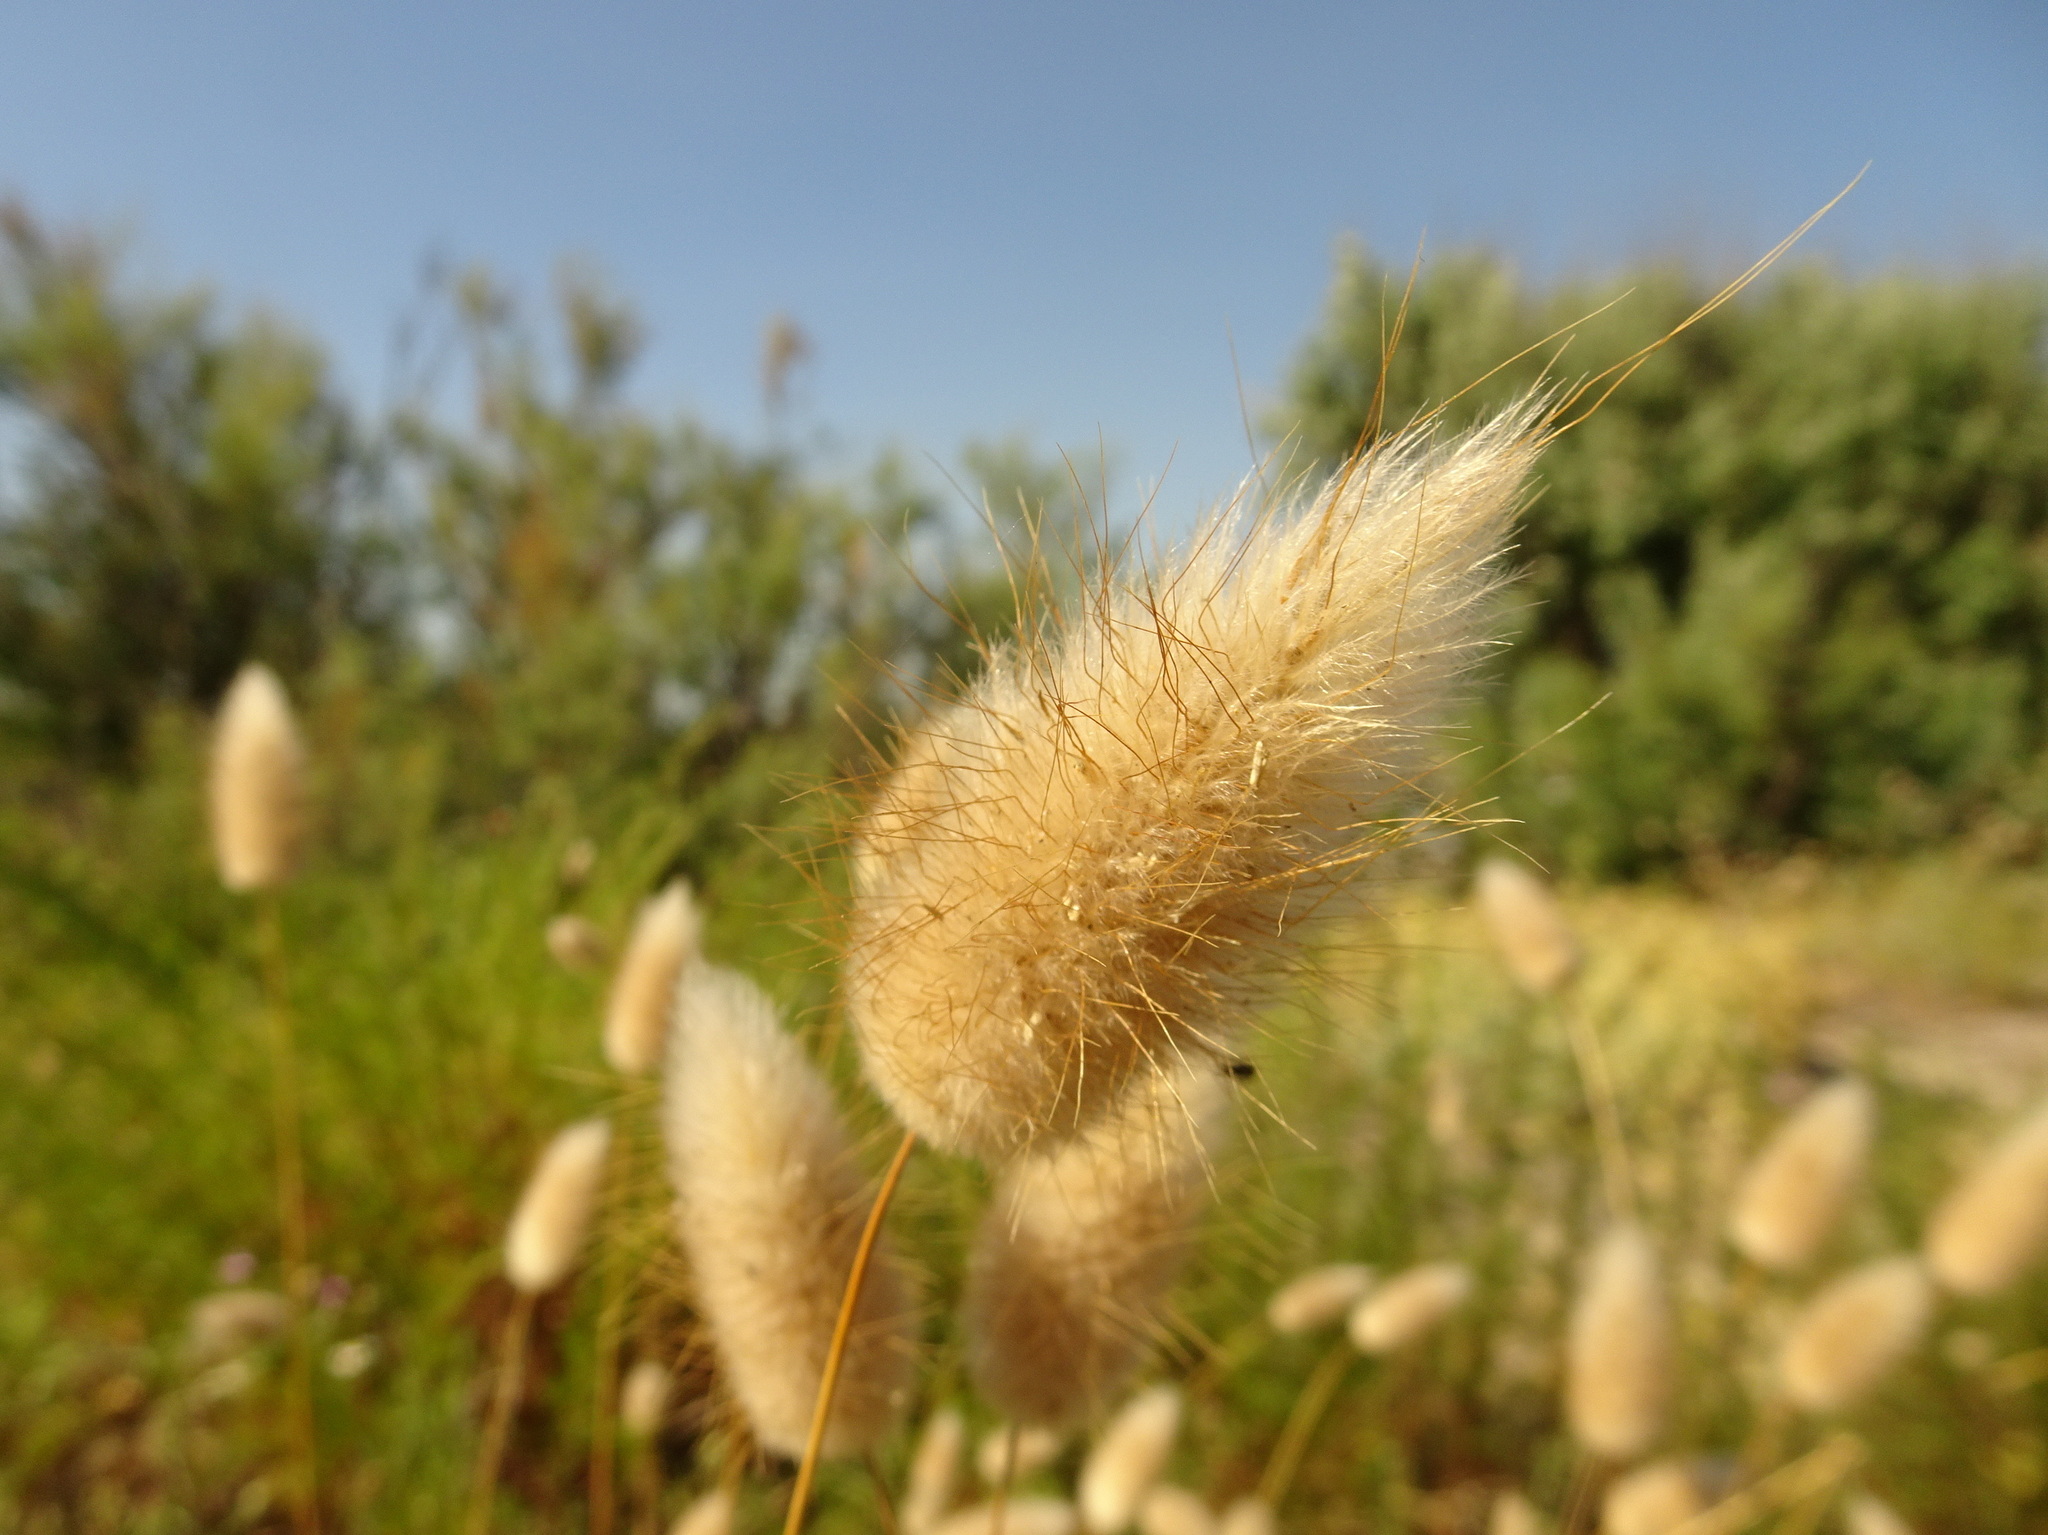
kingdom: Plantae
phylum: Tracheophyta
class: Liliopsida
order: Poales
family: Poaceae
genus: Lagurus
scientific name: Lagurus ovatus
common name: Hare's-tail
